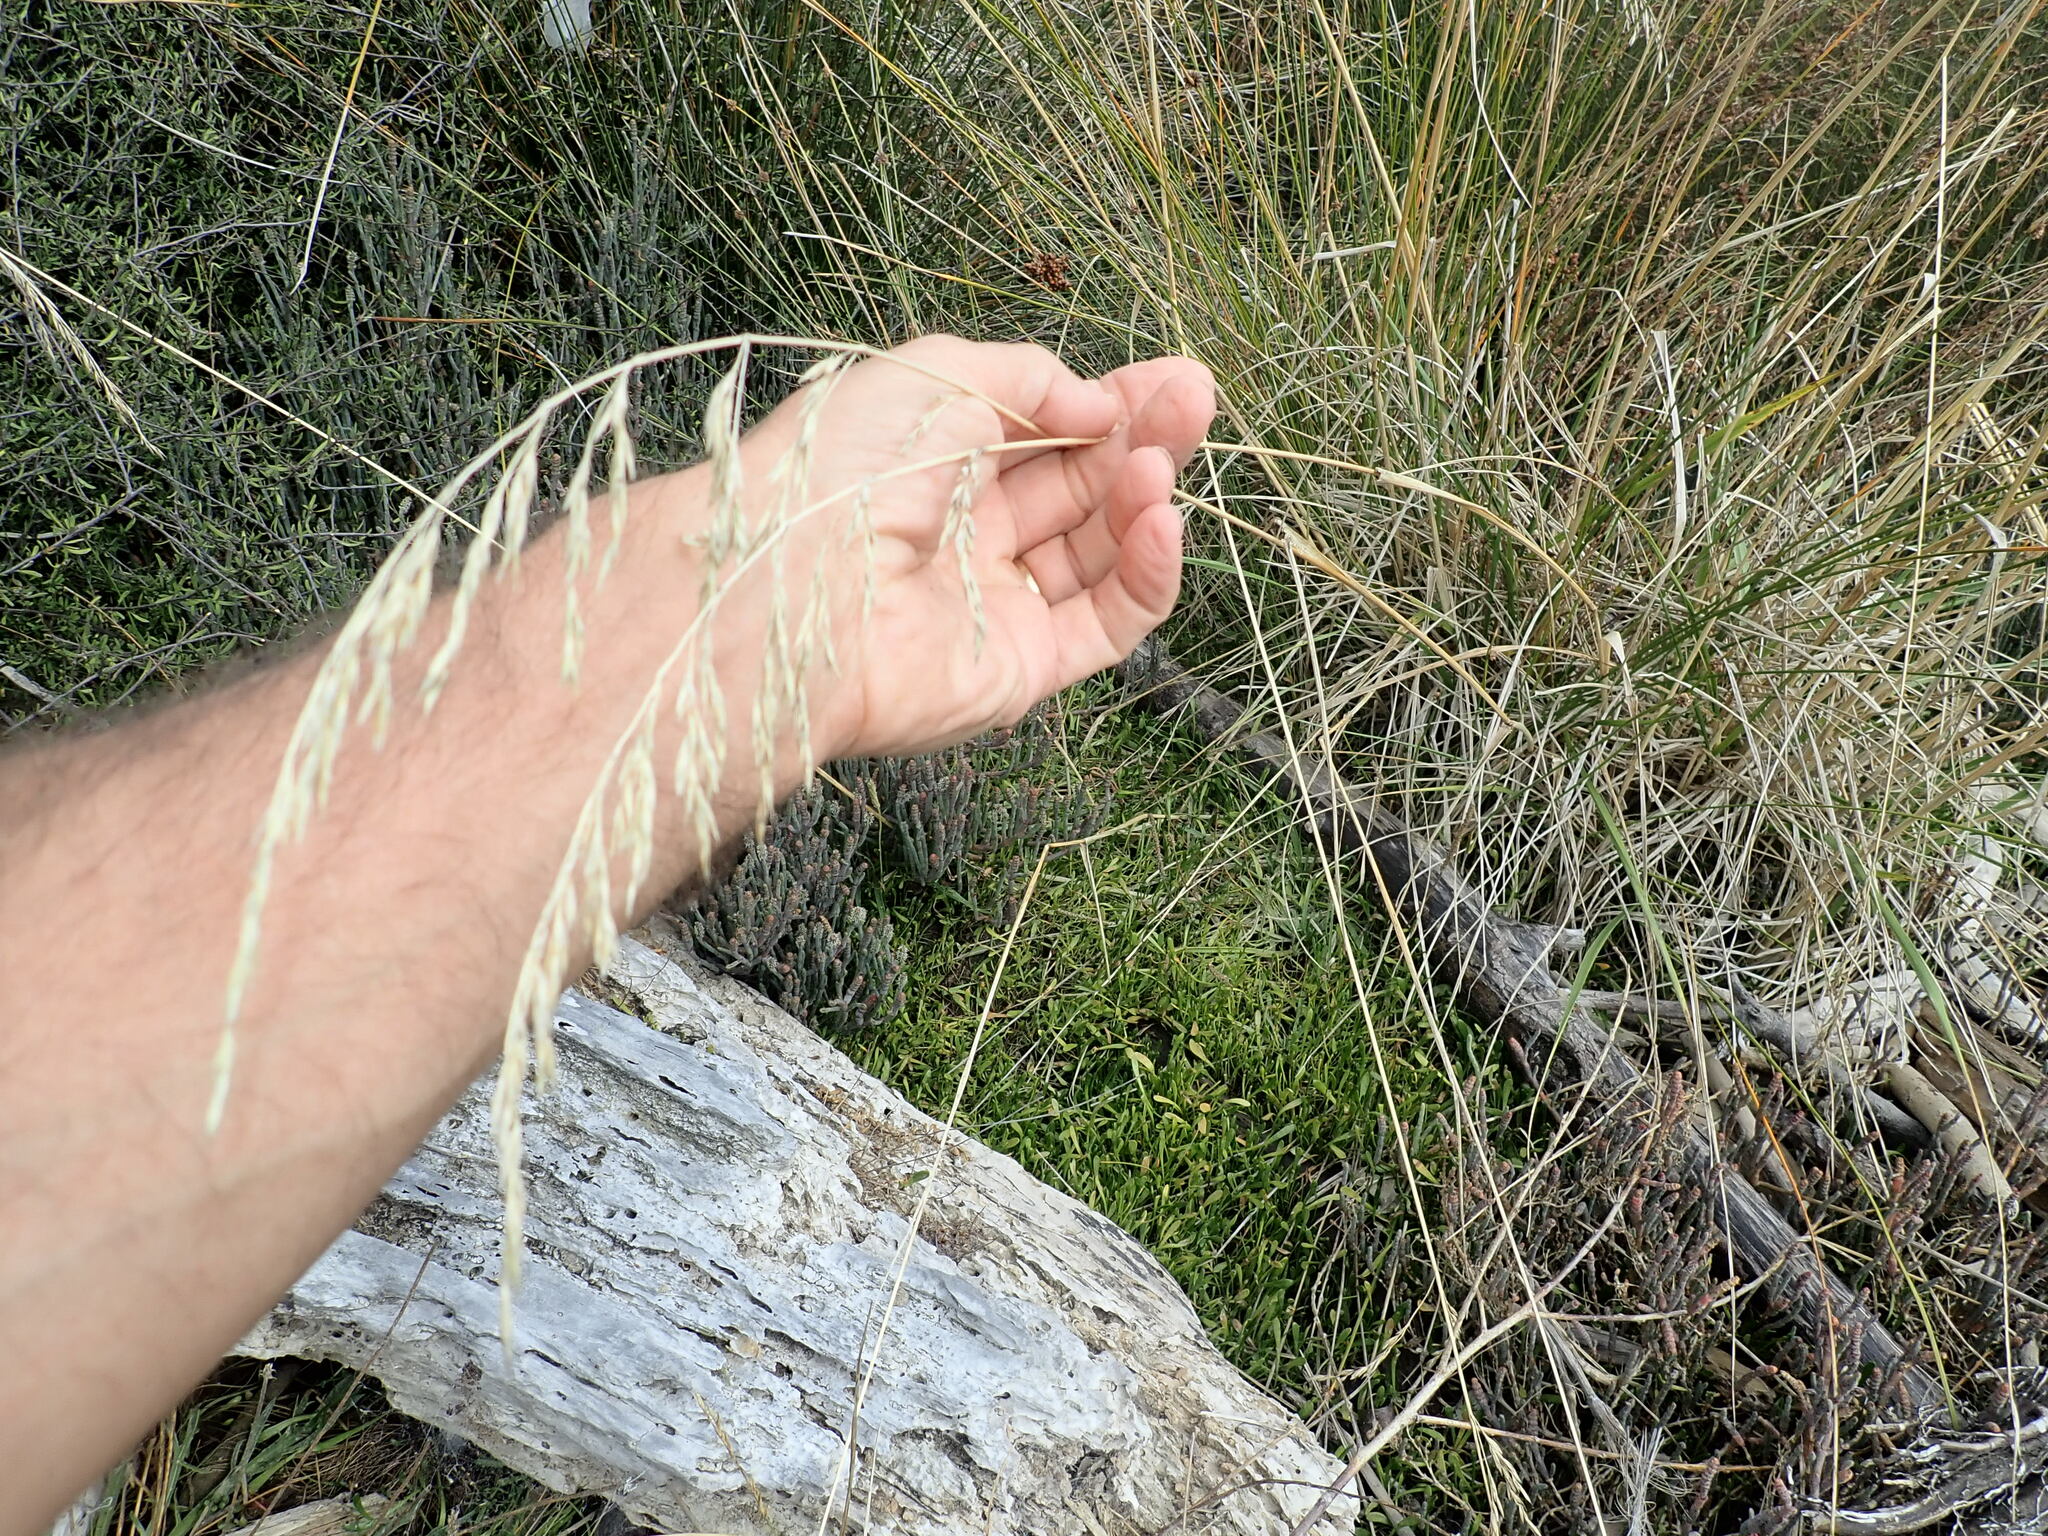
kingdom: Plantae
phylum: Tracheophyta
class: Liliopsida
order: Poales
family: Poaceae
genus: Lolium
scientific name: Lolium arundinaceum
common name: Reed fescue
